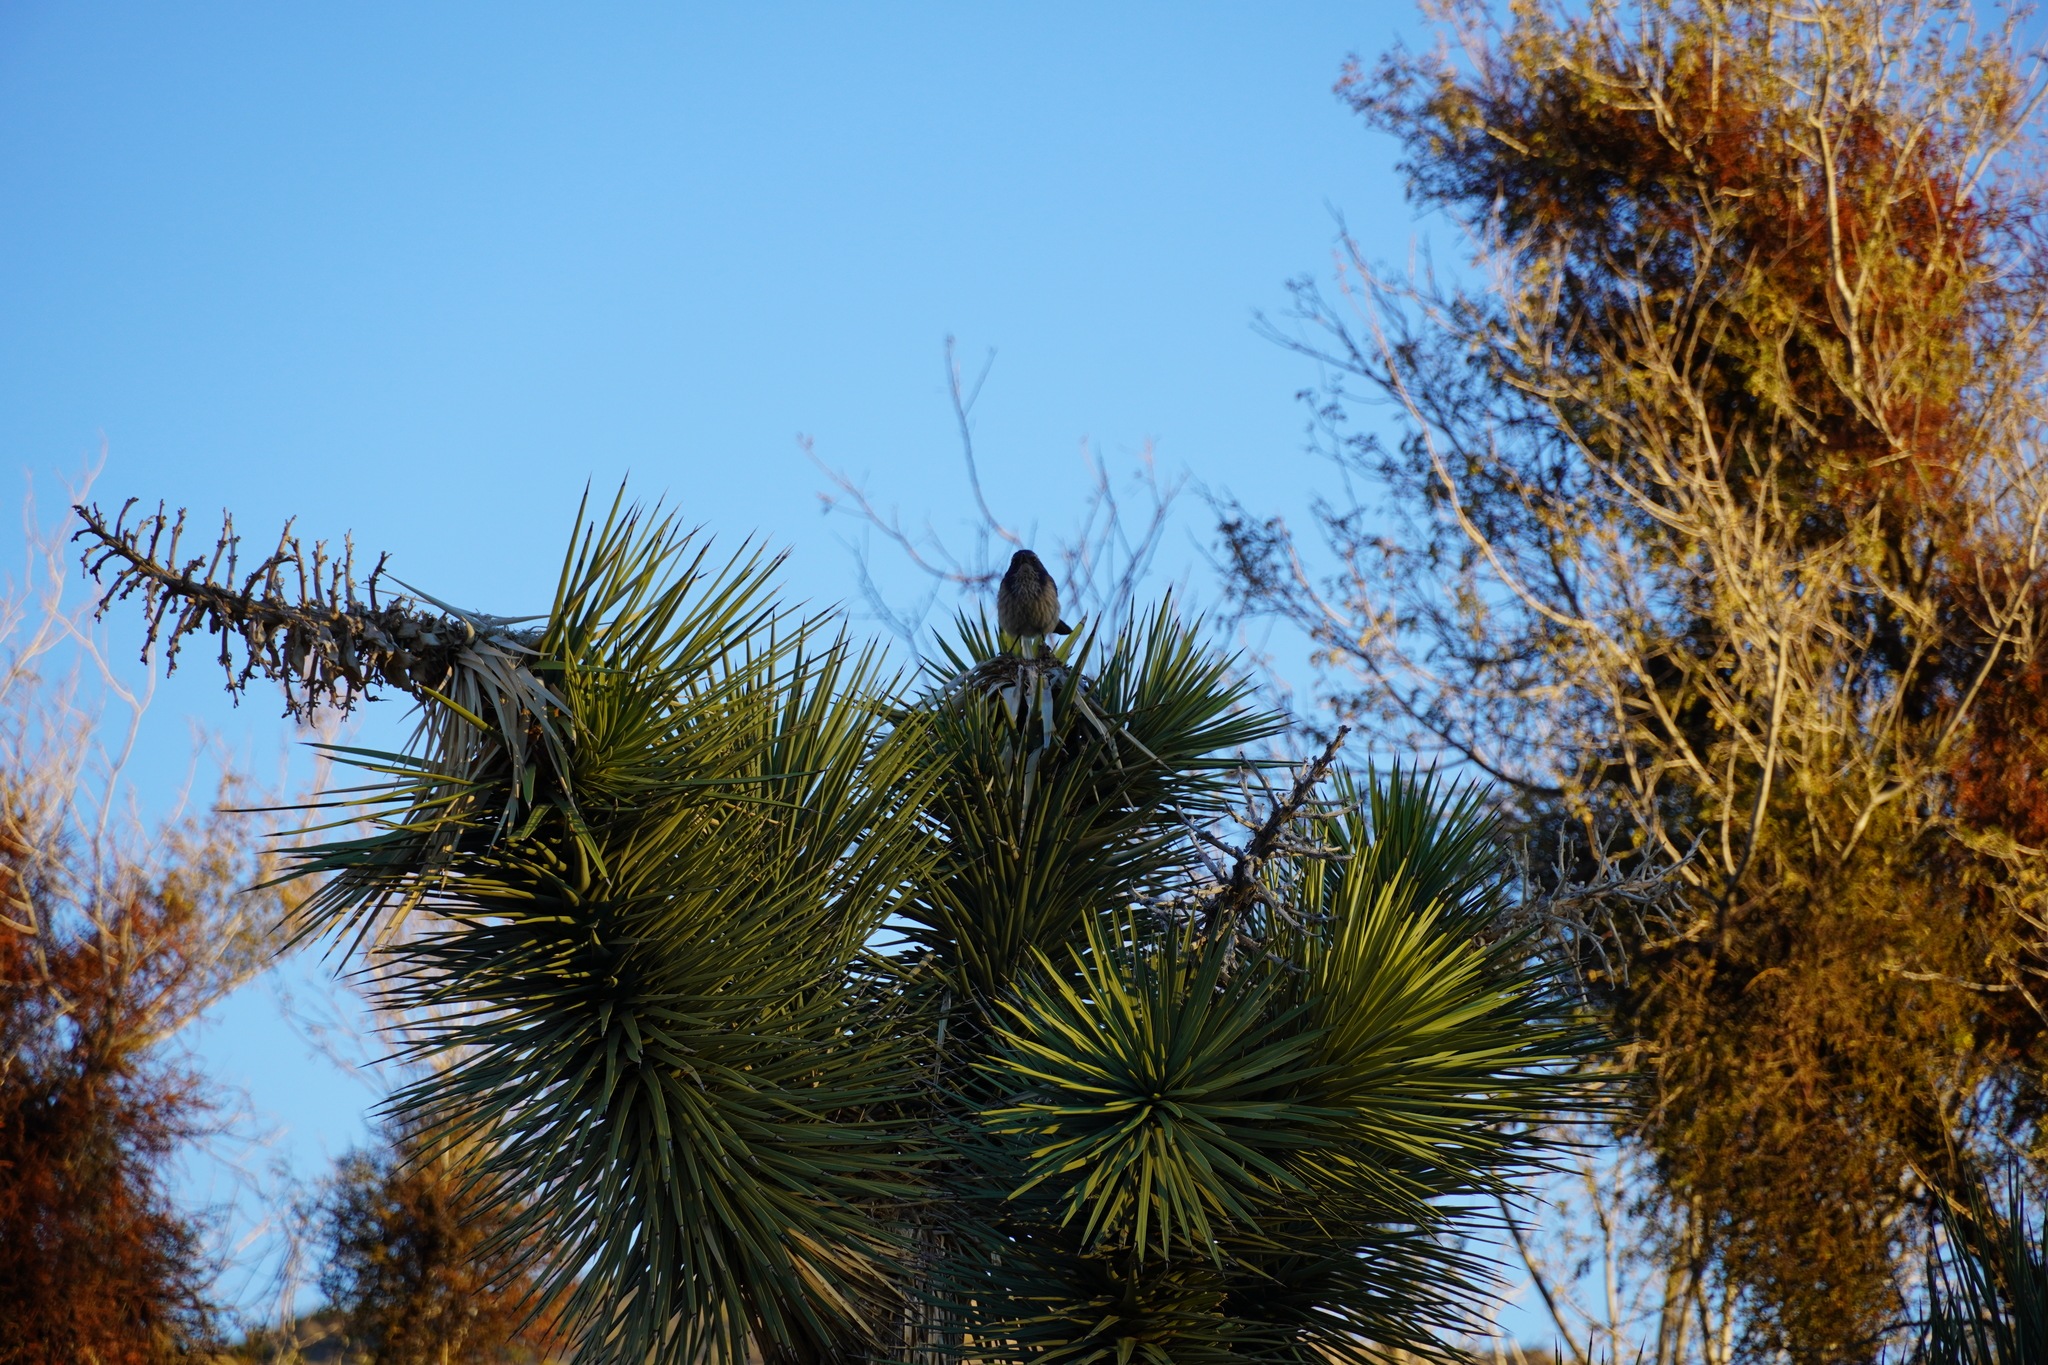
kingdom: Animalia
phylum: Chordata
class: Aves
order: Passeriformes
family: Corvidae
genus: Aphelocoma
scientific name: Aphelocoma californica
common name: California scrub-jay
